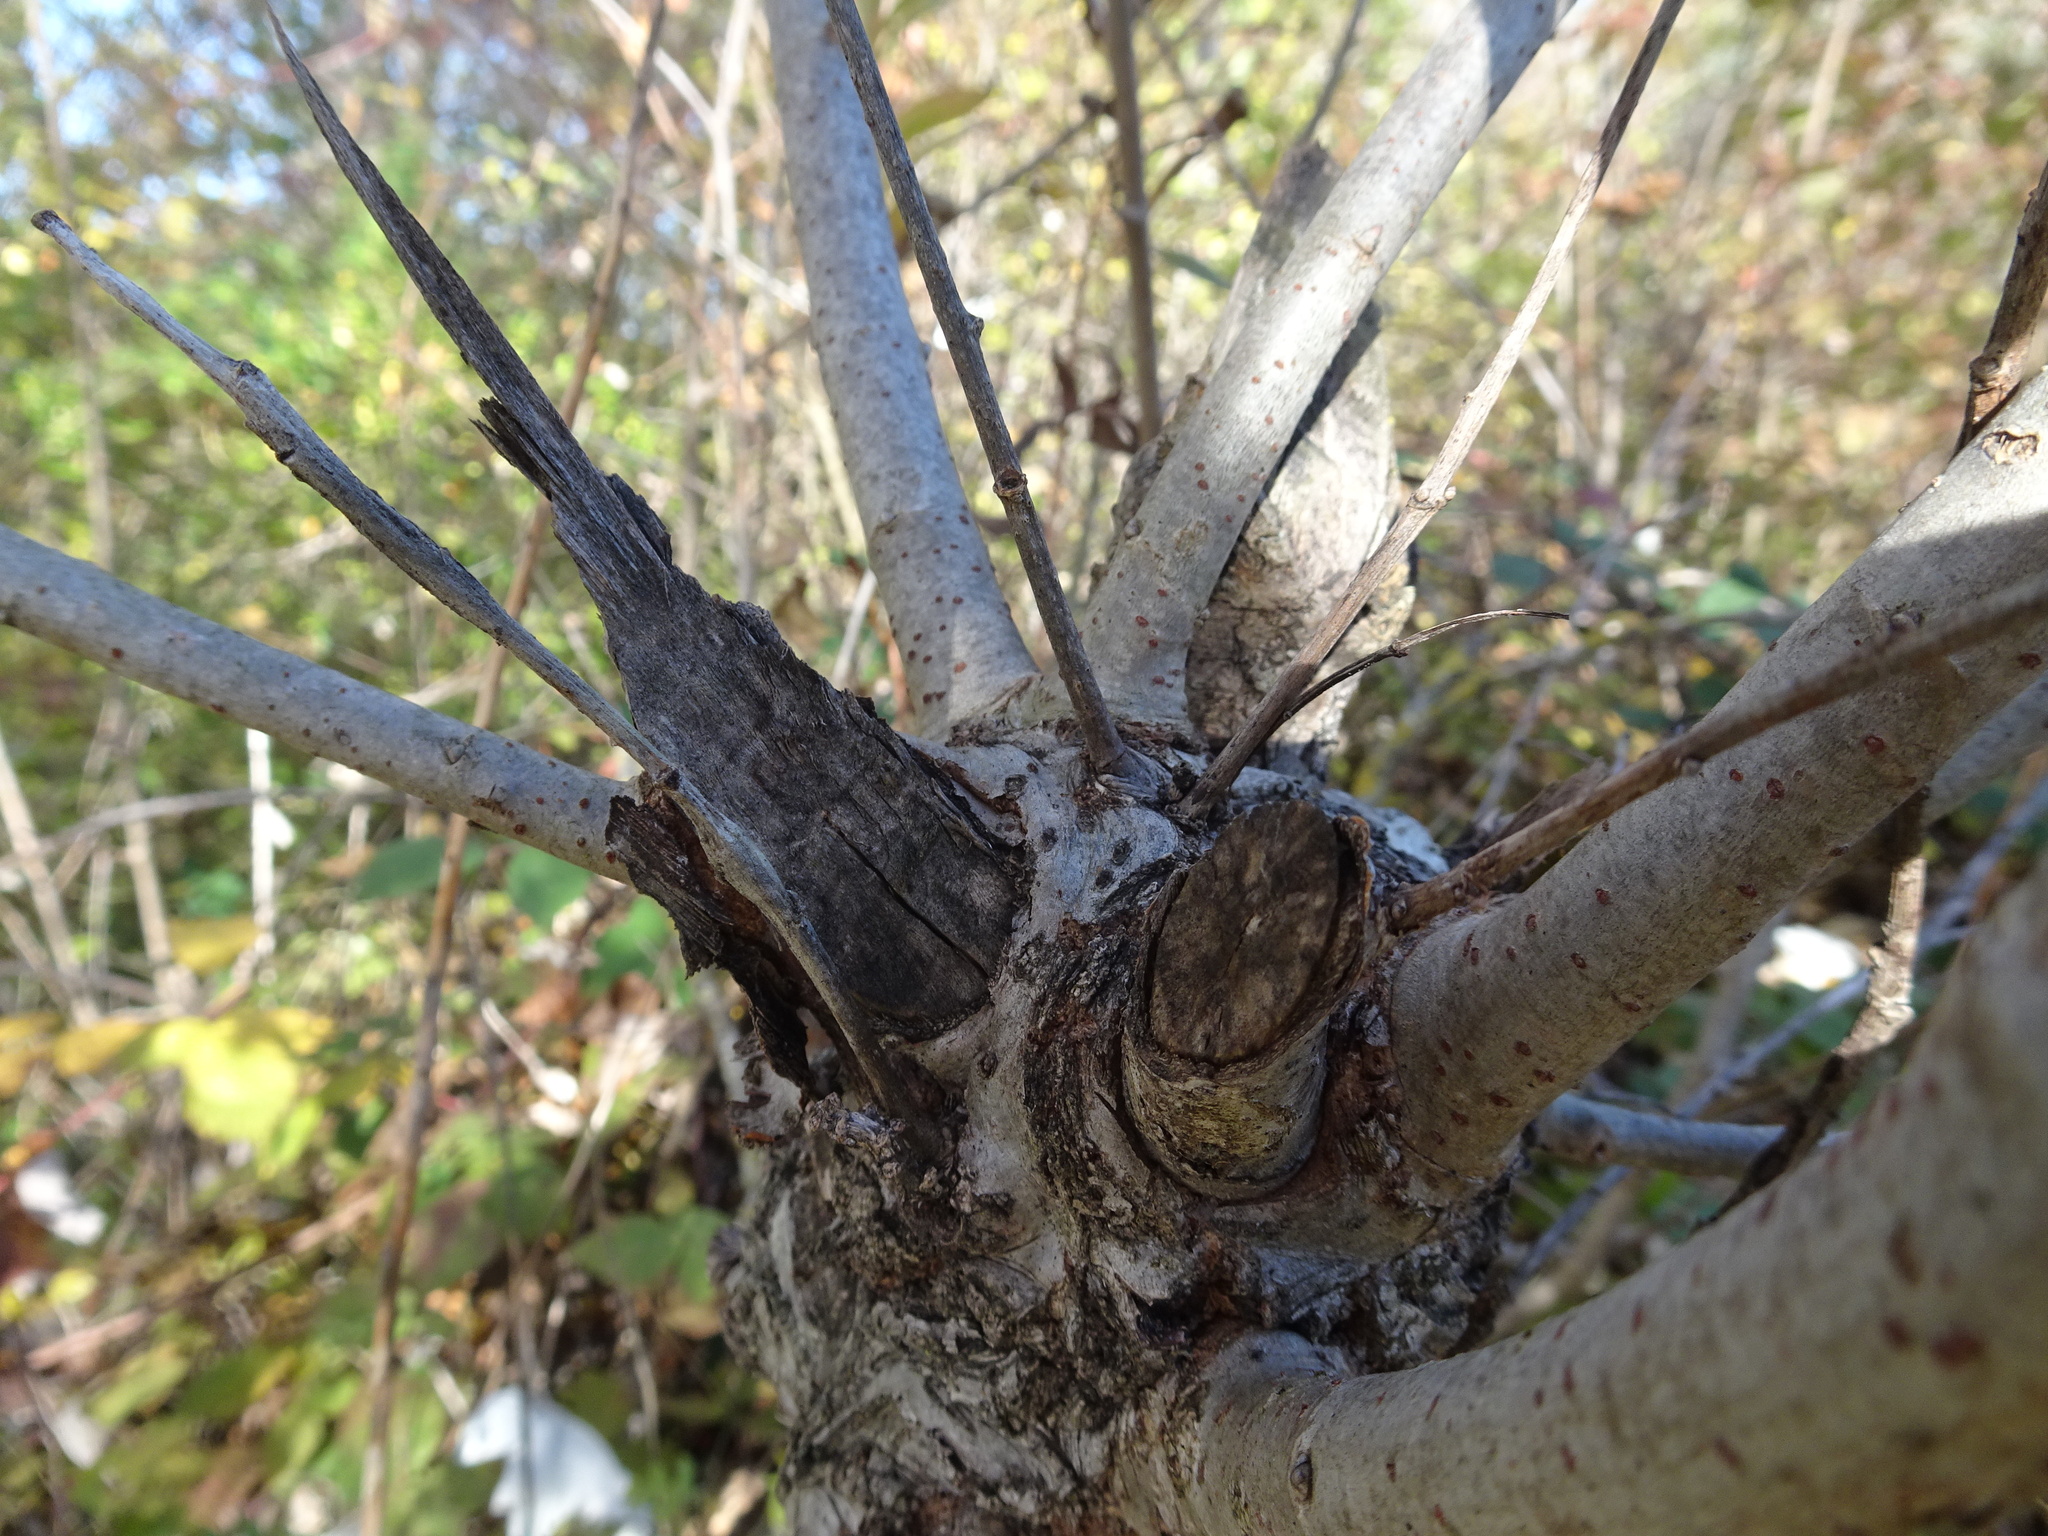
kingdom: Animalia
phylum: Chordata
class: Mammalia
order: Rodentia
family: Castoridae
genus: Castor
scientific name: Castor fiber
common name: Eurasian beaver
